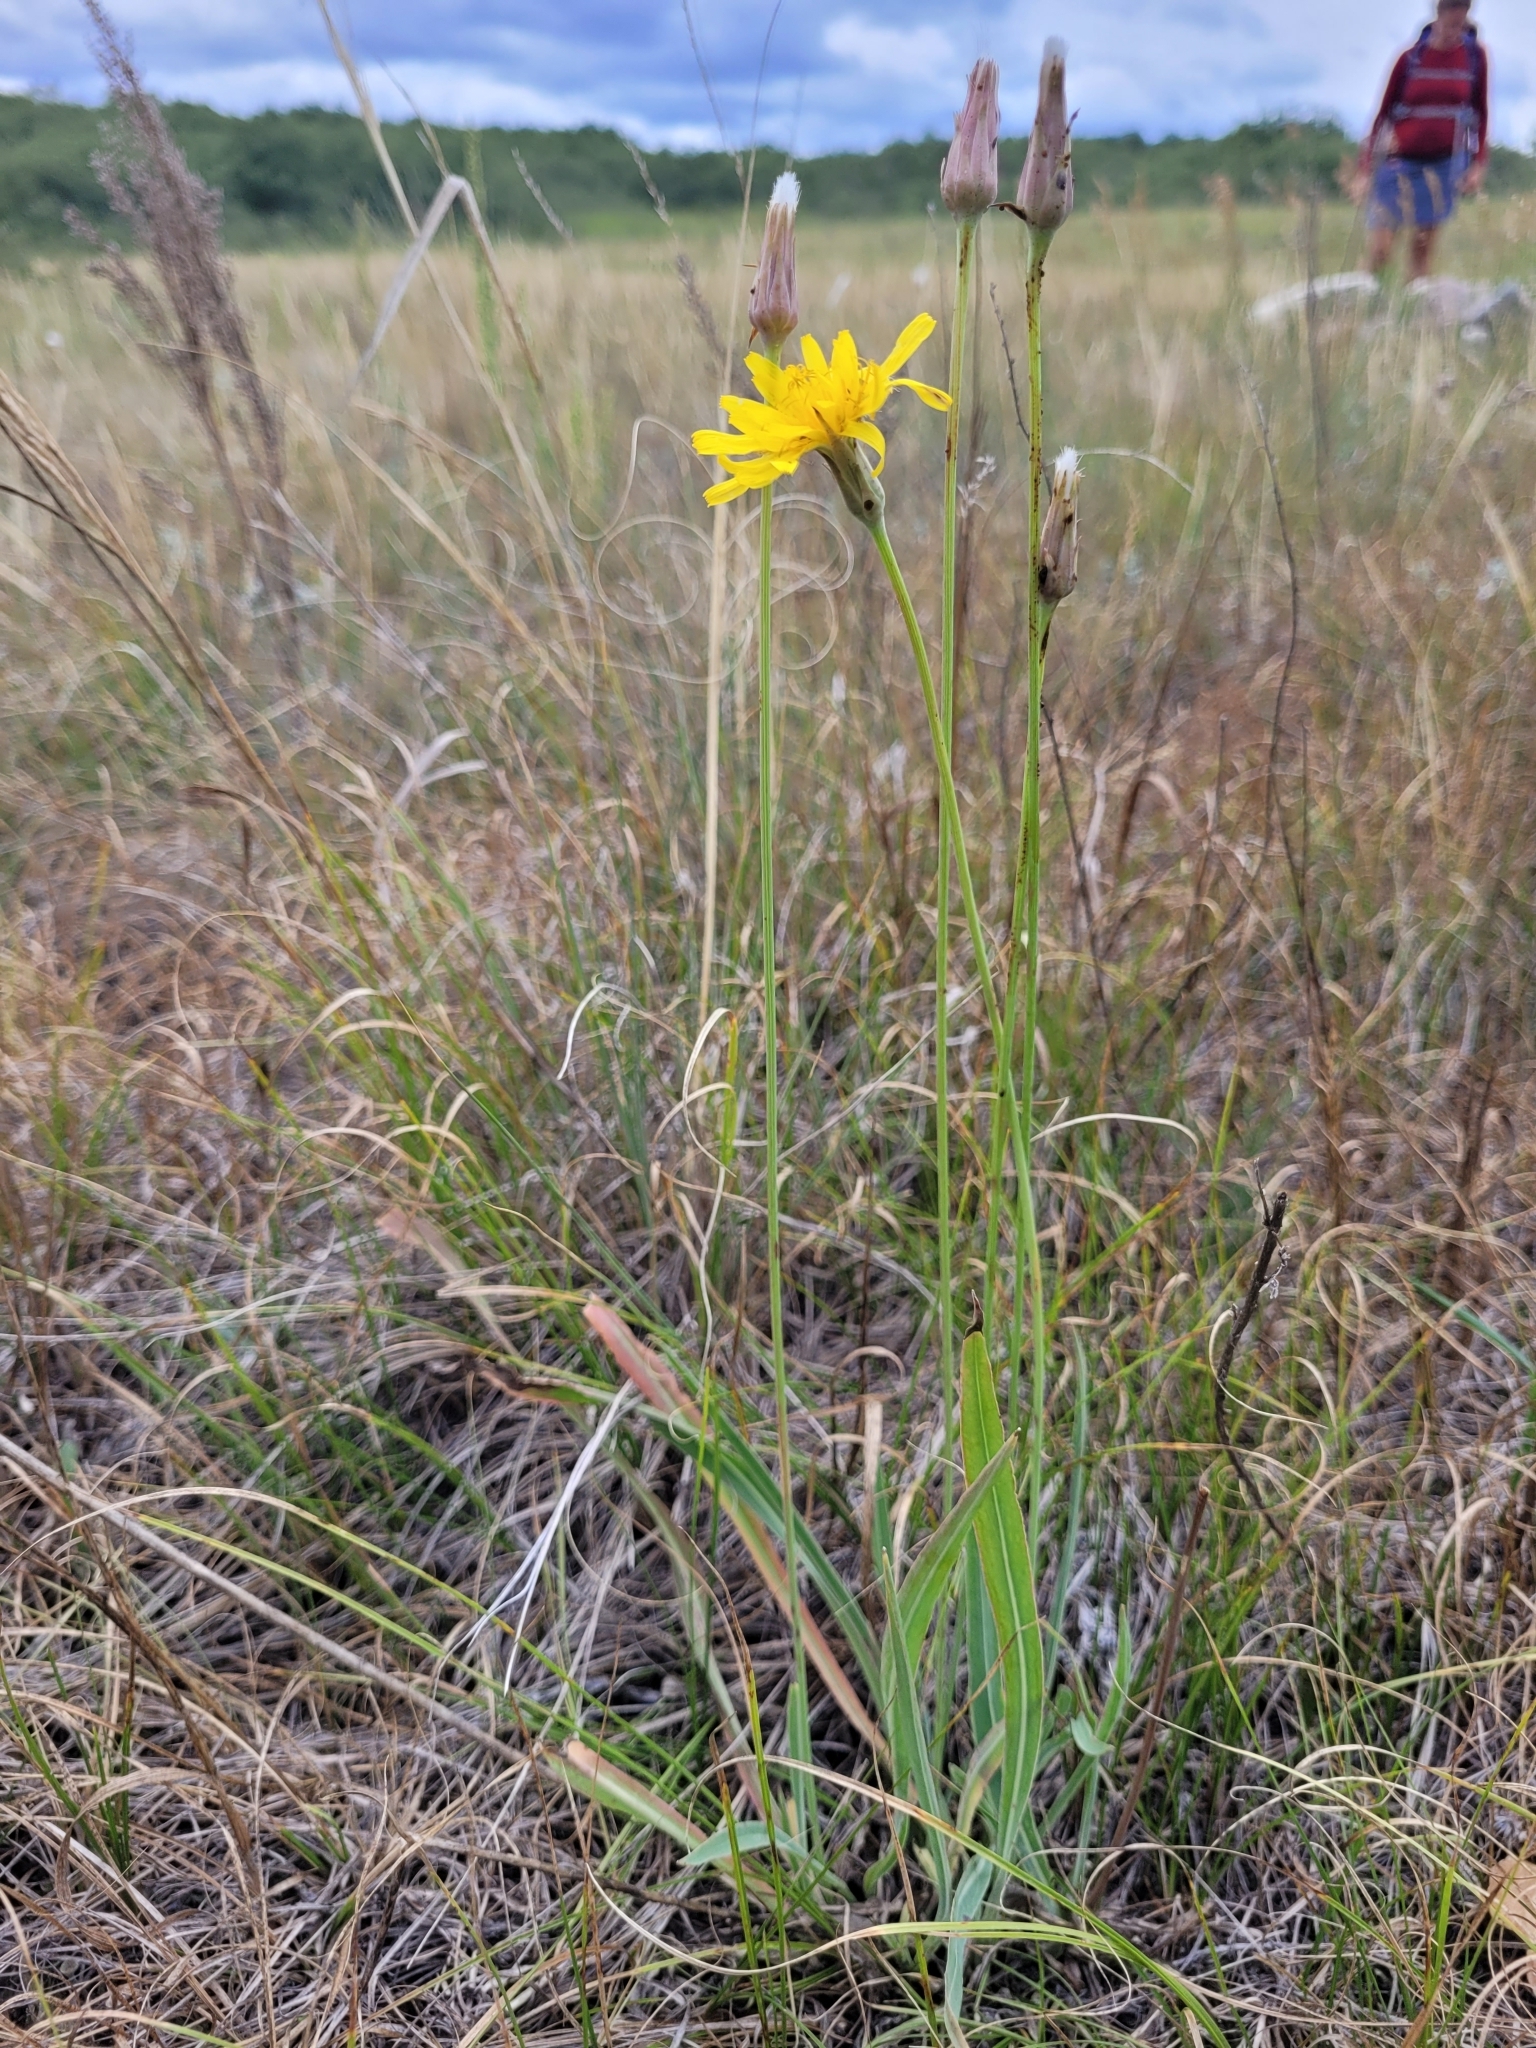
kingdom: Plantae
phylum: Tracheophyta
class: Magnoliopsida
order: Asterales
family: Asteraceae
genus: Agoseris
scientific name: Agoseris glauca
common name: Prairie agoseris
